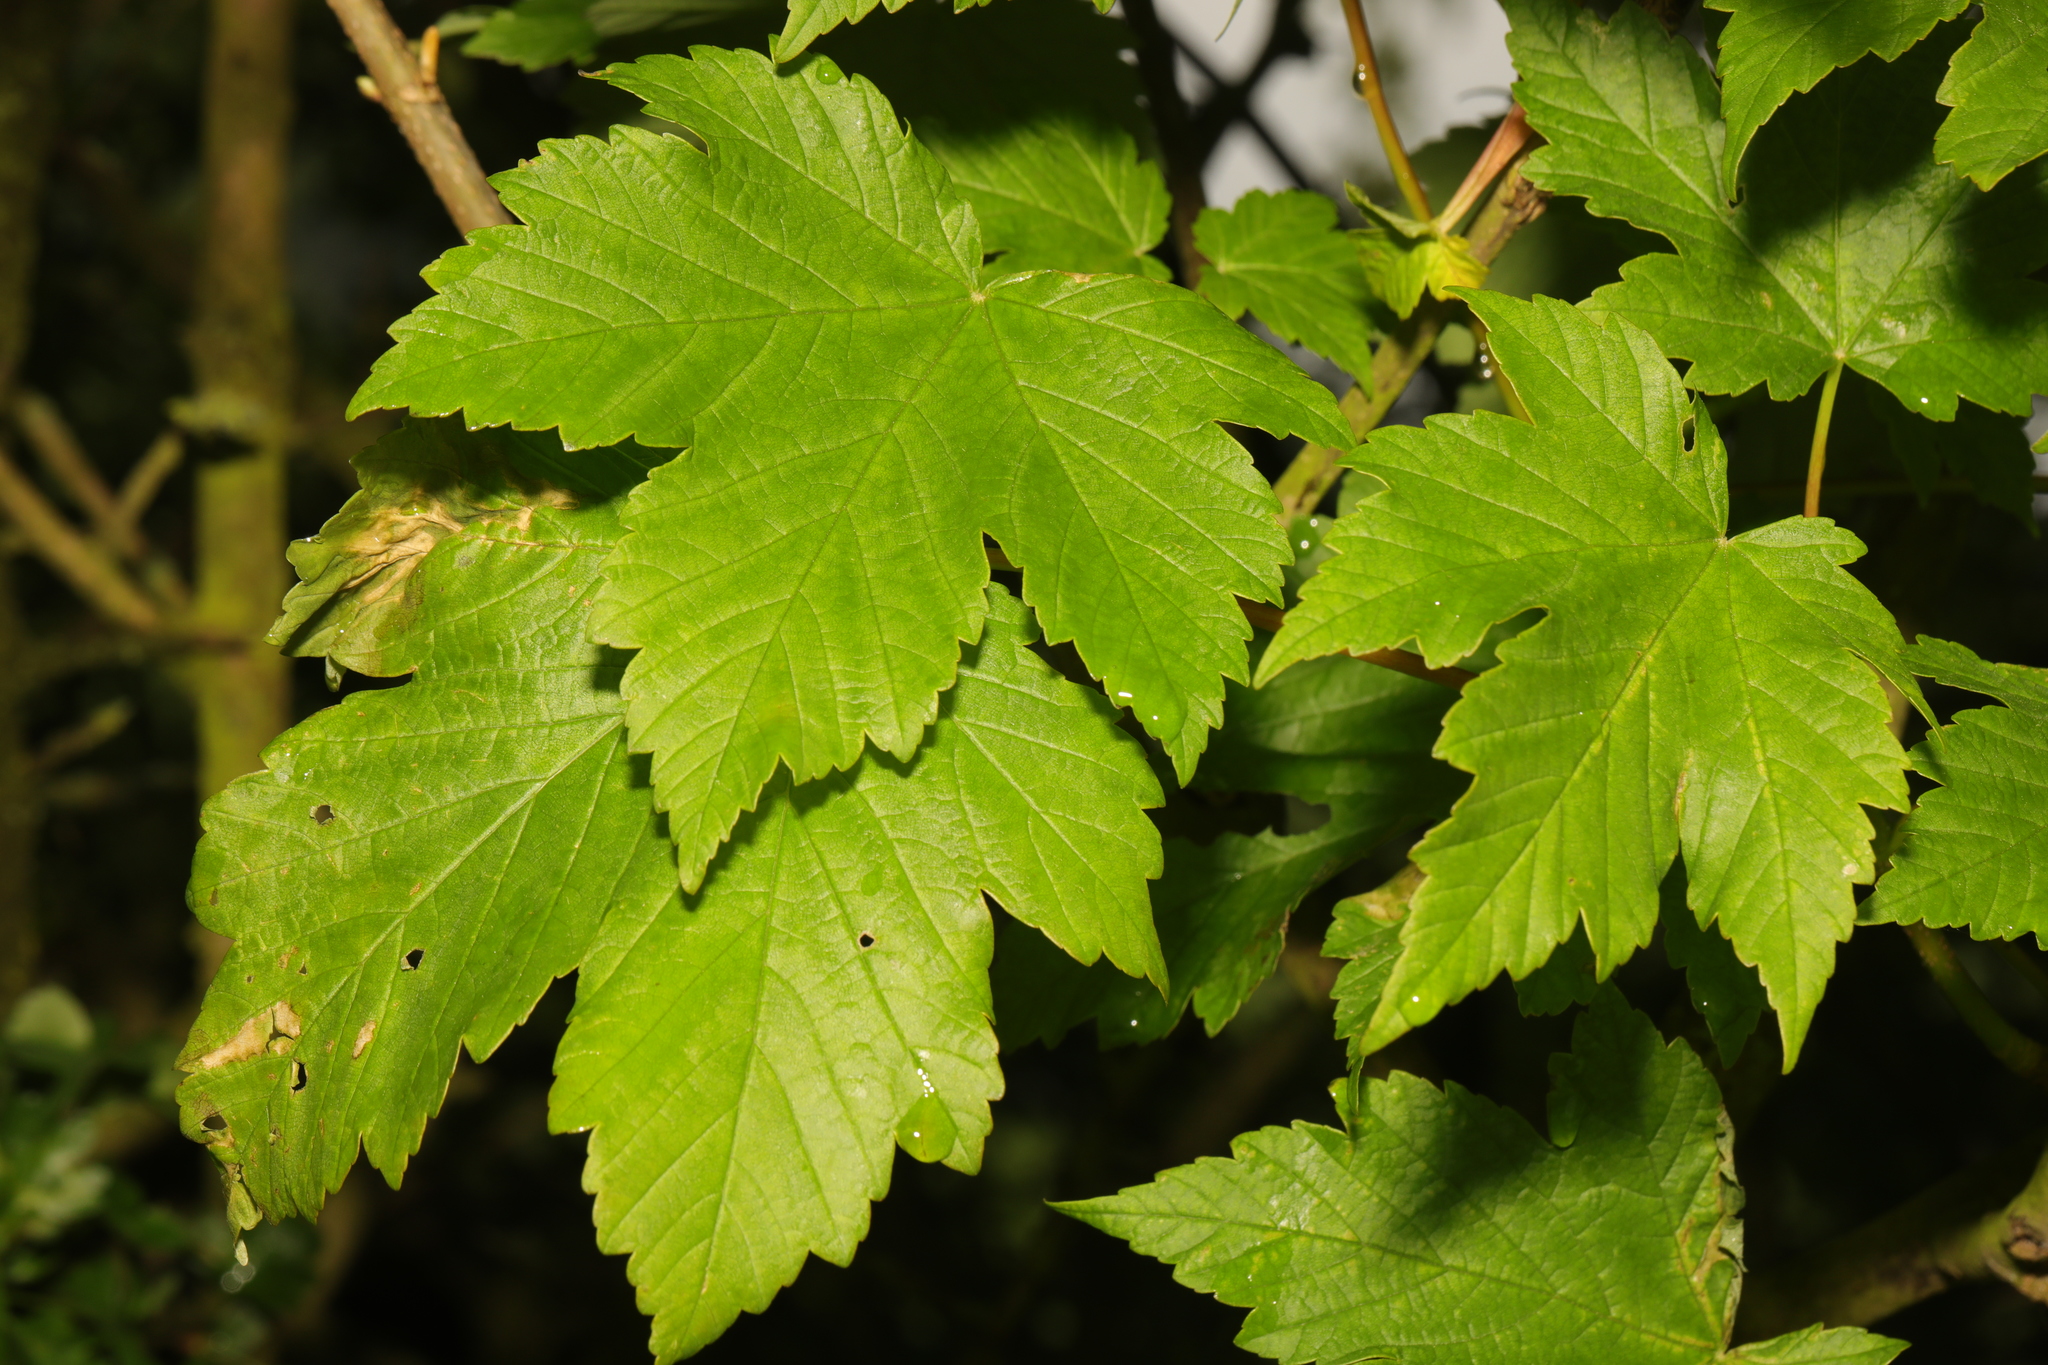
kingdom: Plantae
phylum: Tracheophyta
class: Magnoliopsida
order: Sapindales
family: Sapindaceae
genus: Acer
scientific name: Acer pseudoplatanus
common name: Sycamore
